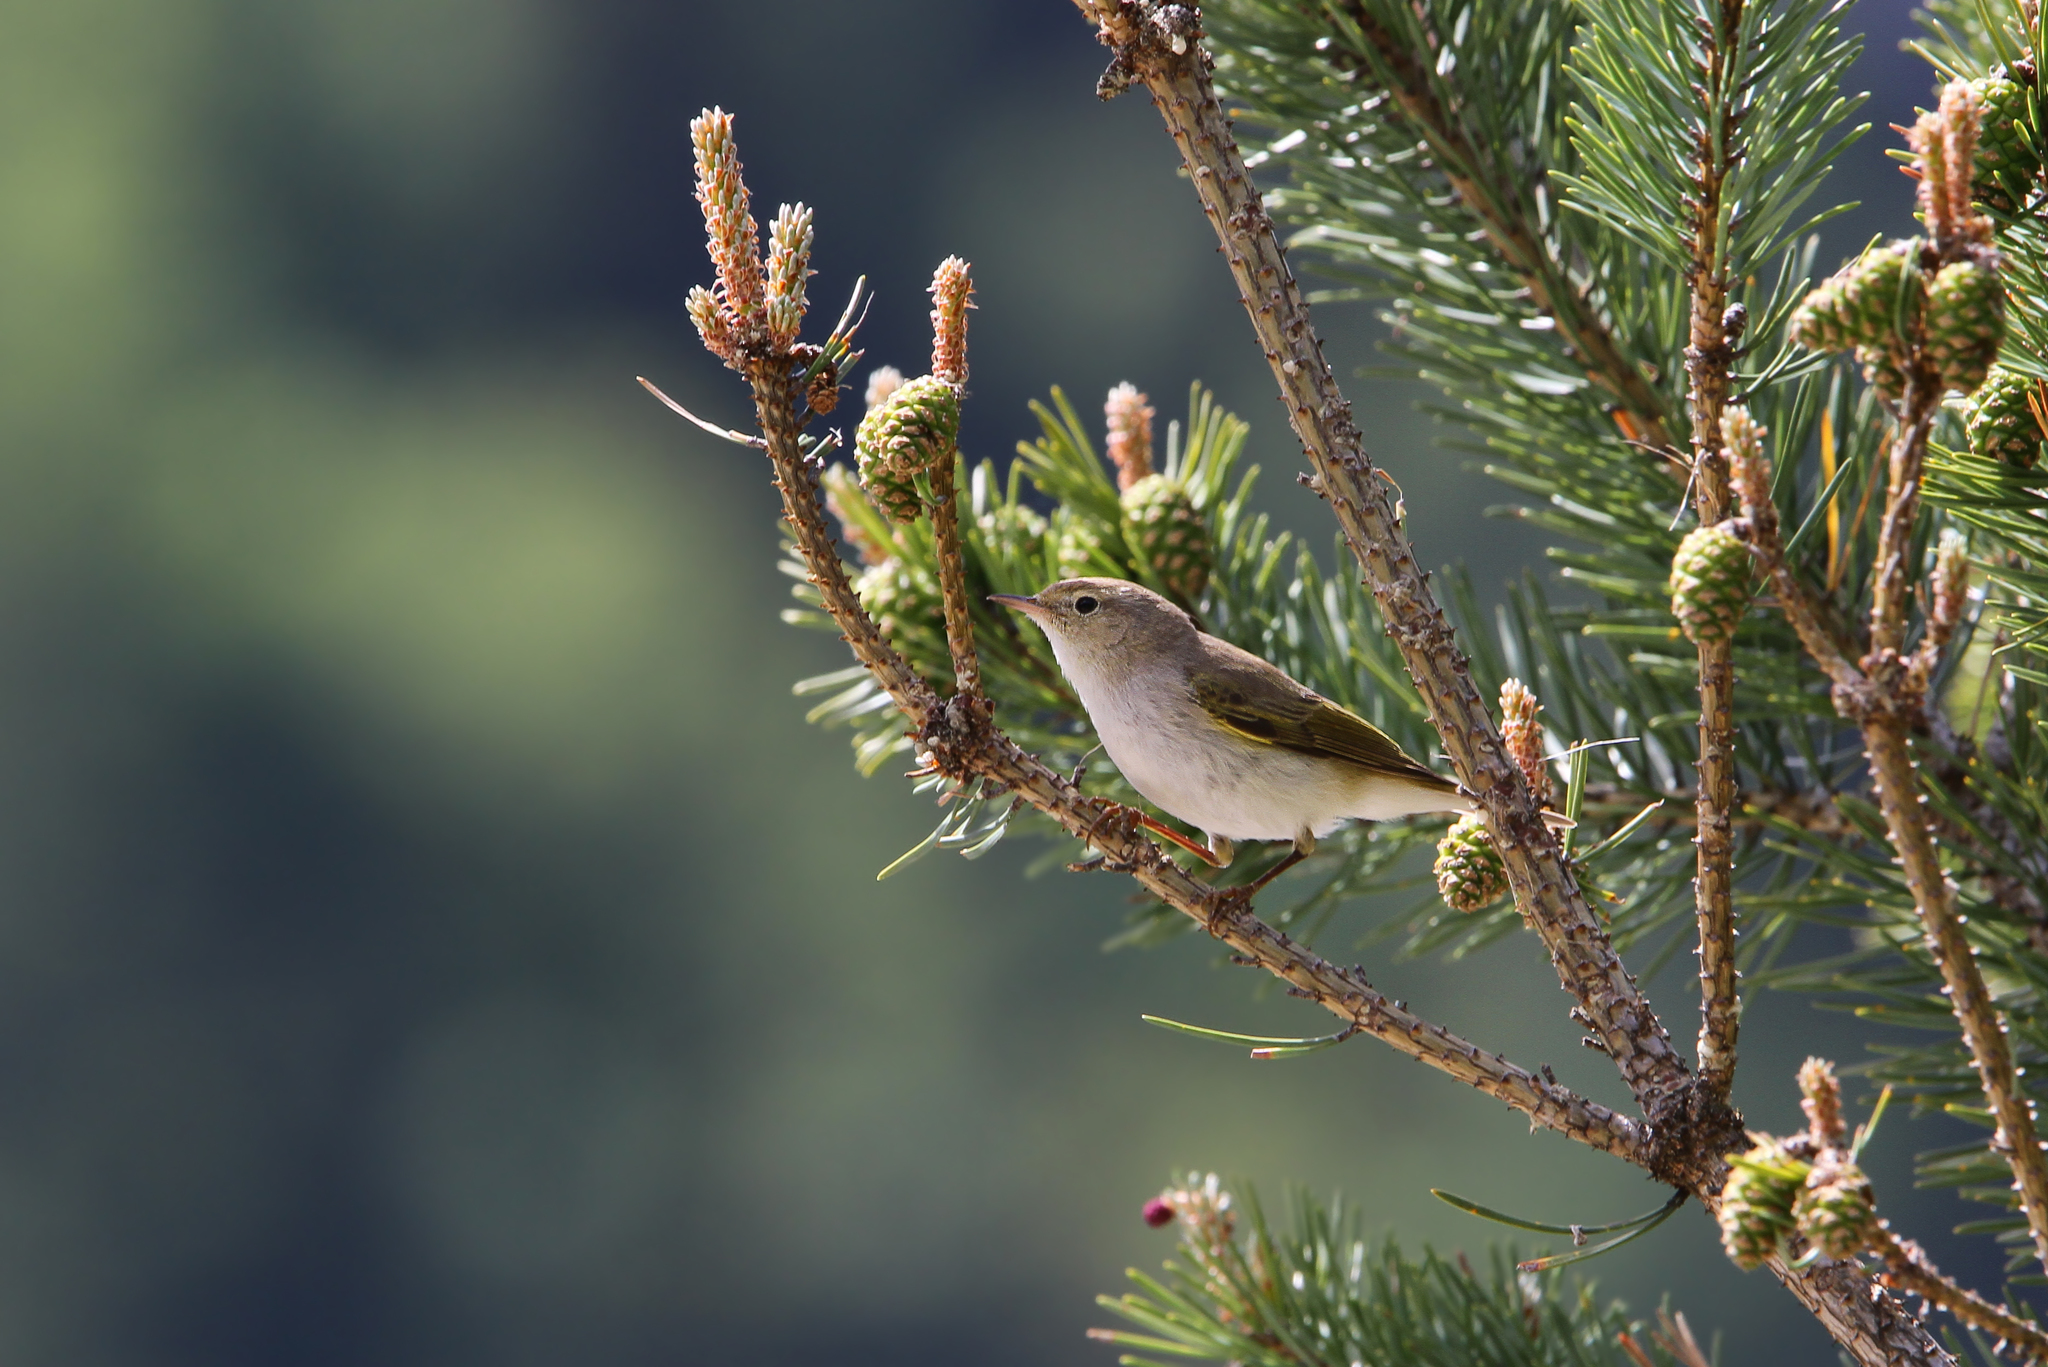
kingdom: Animalia
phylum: Chordata
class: Aves
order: Passeriformes
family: Phylloscopidae
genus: Phylloscopus
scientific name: Phylloscopus bonelli
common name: Western bonelli's warbler
